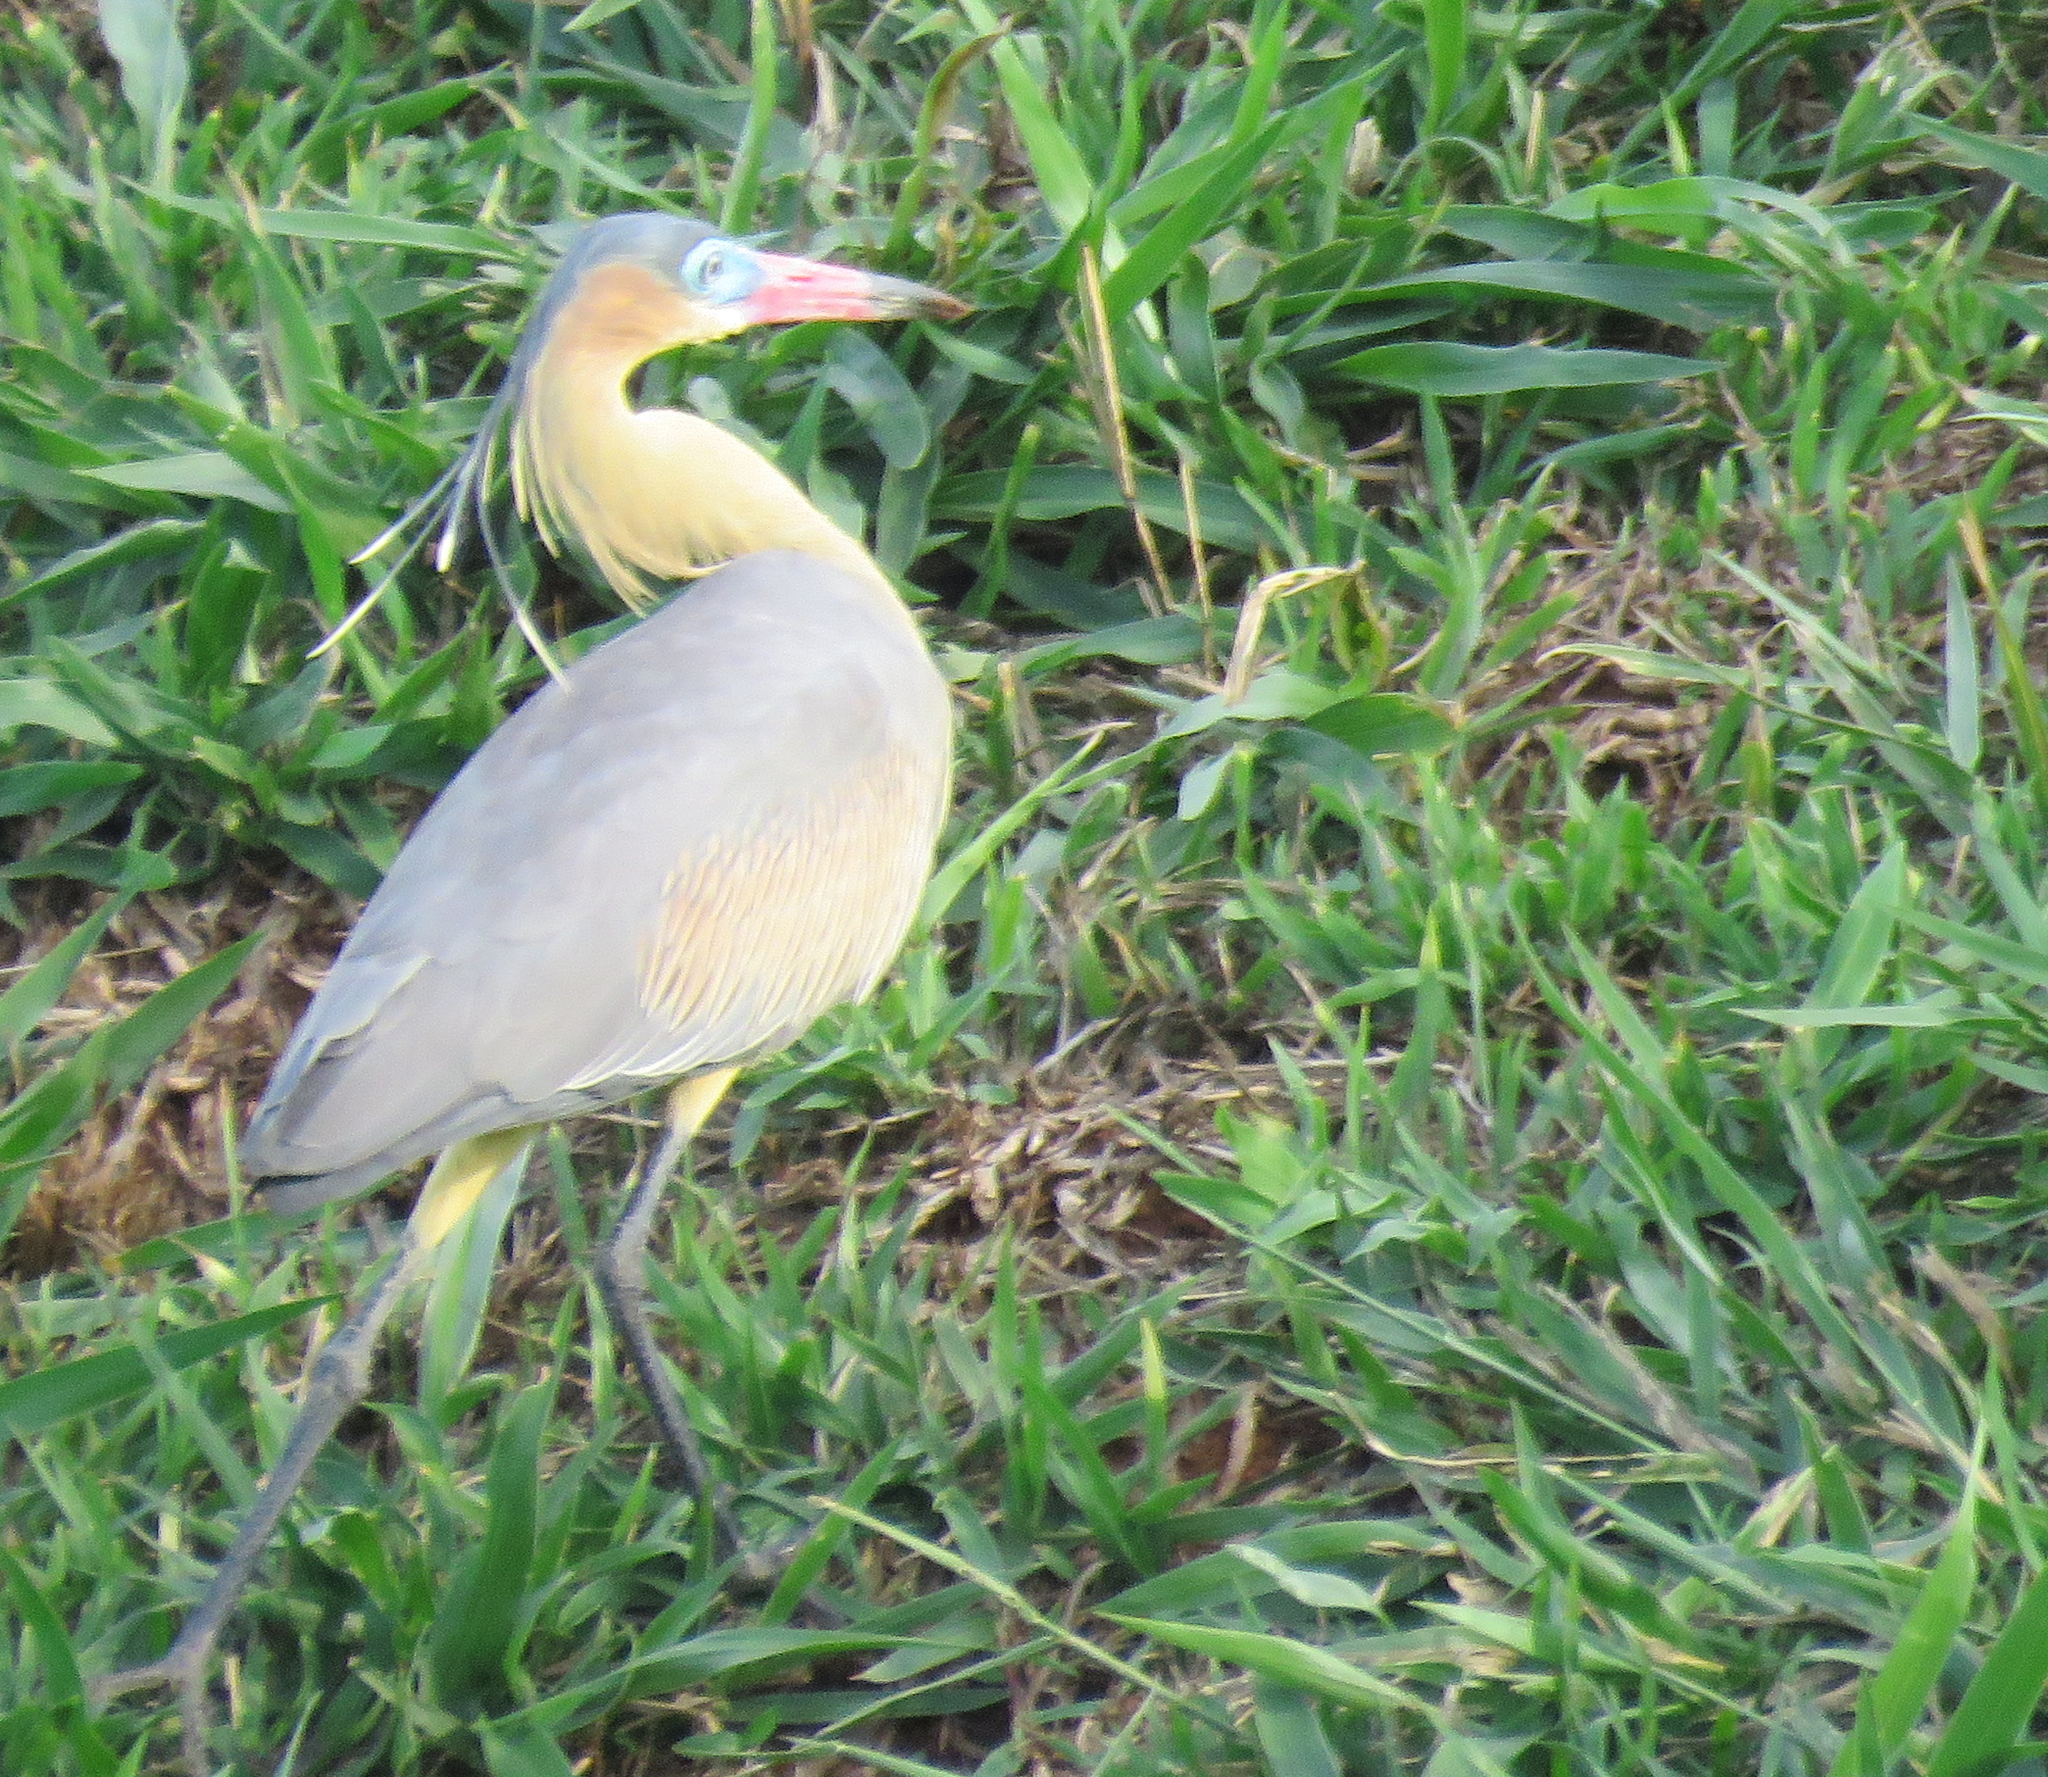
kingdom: Animalia
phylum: Chordata
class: Aves
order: Pelecaniformes
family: Ardeidae
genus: Syrigma
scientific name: Syrigma sibilatrix
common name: Whistling heron
